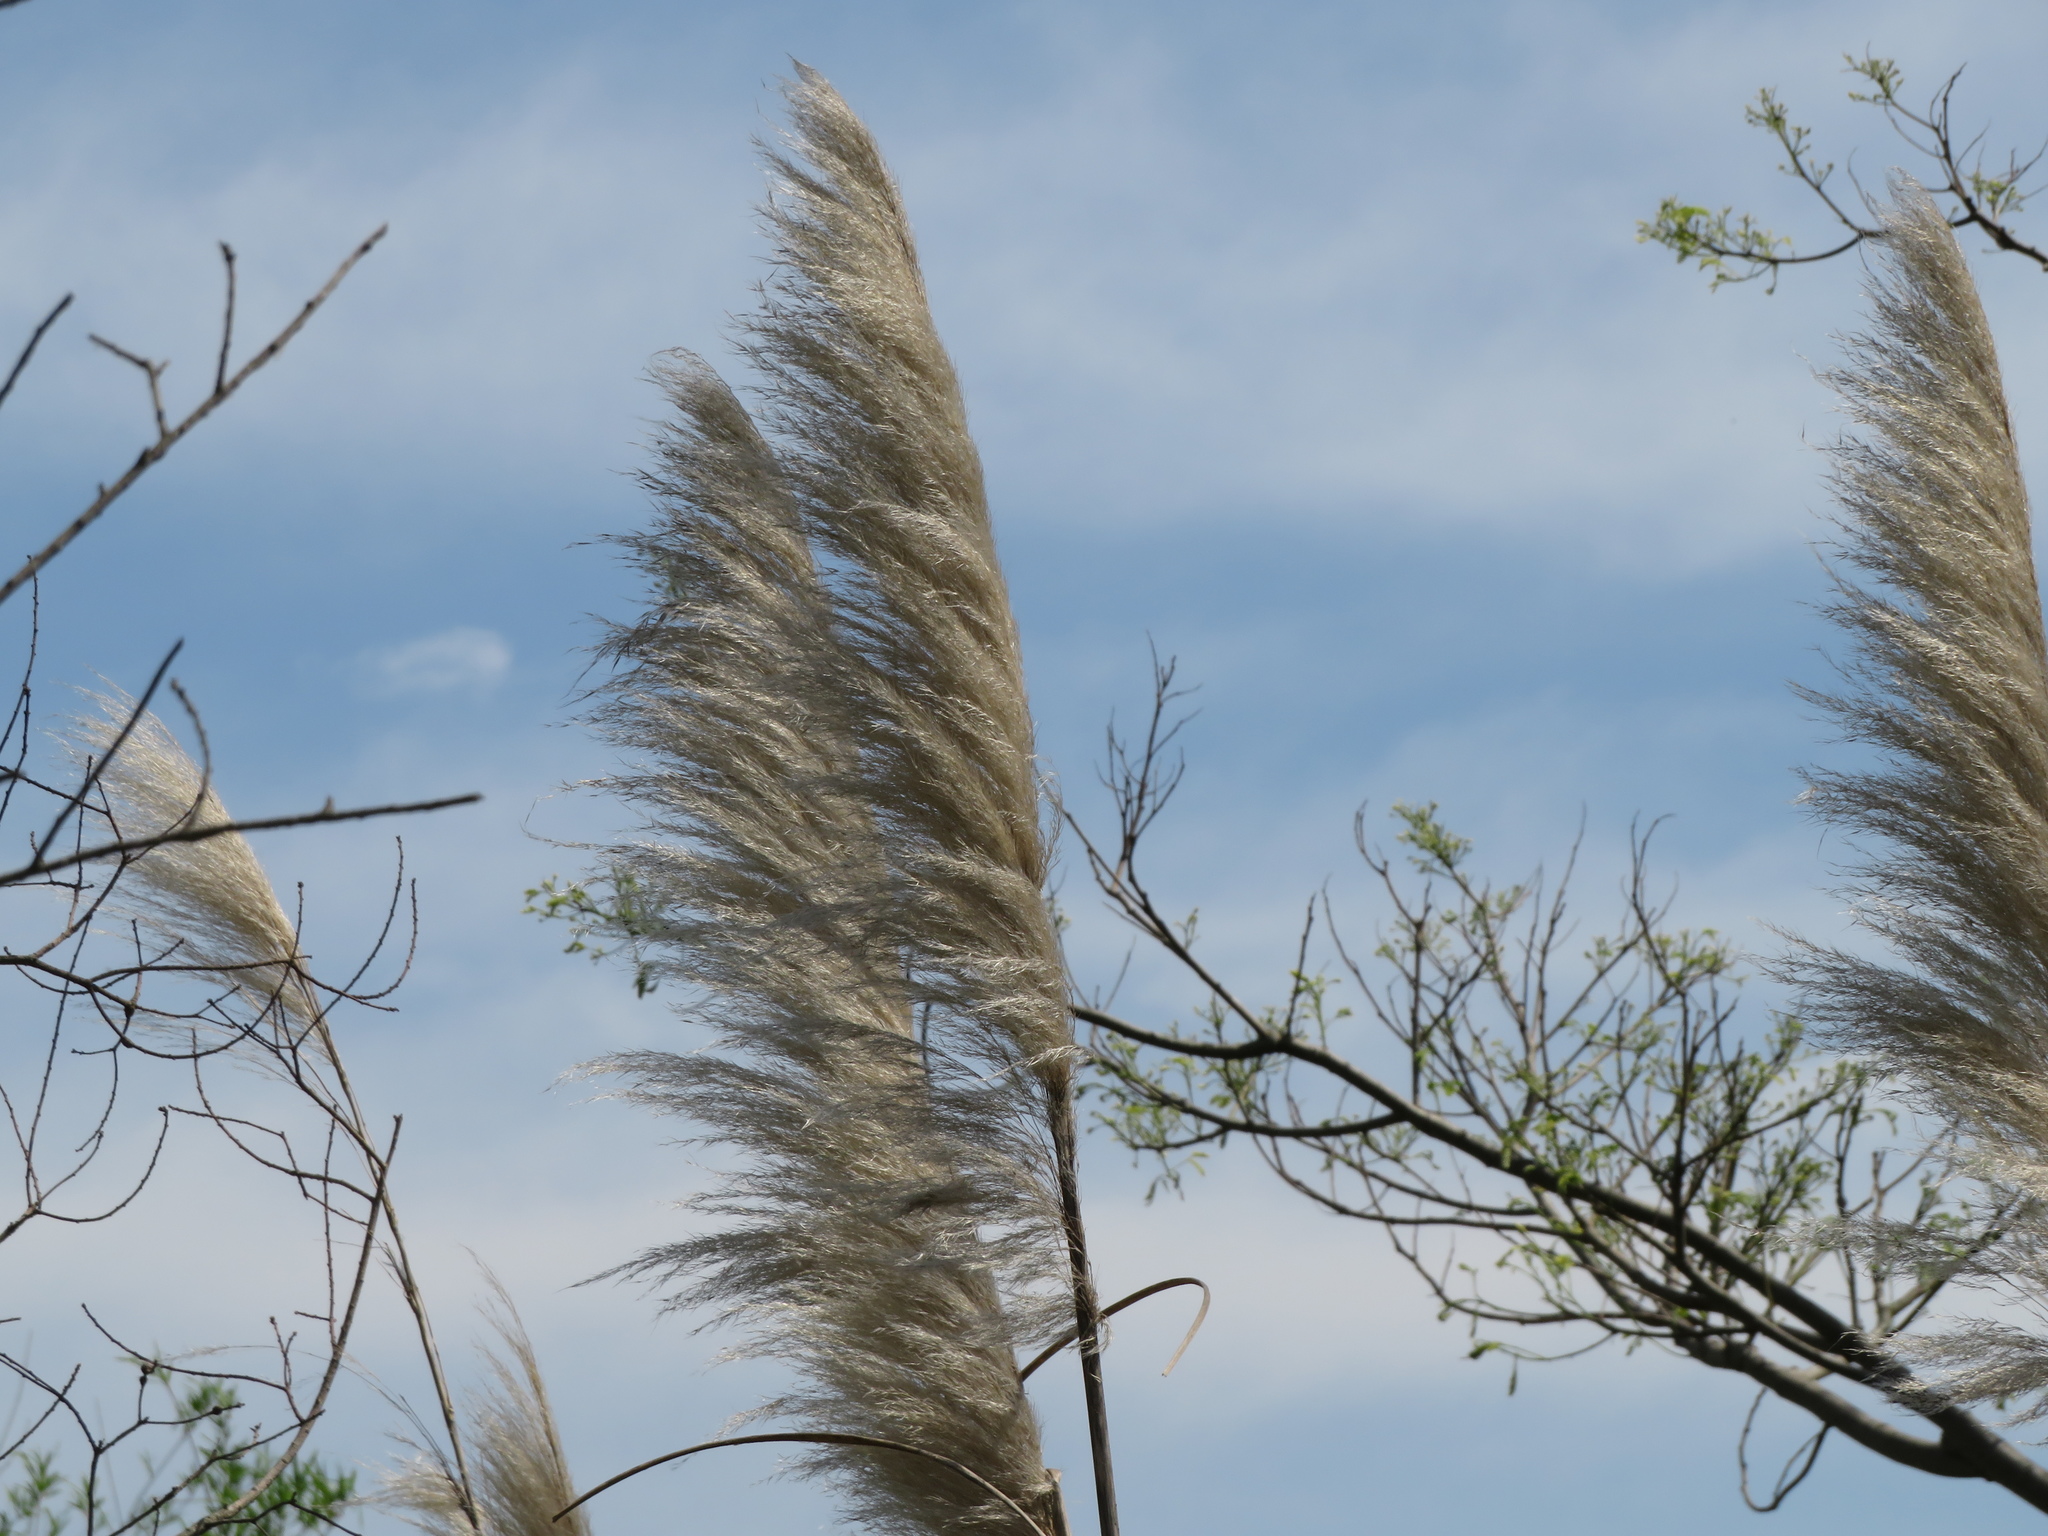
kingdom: Plantae
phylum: Tracheophyta
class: Liliopsida
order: Poales
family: Poaceae
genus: Cortaderia
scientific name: Cortaderia selloana
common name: Uruguayan pampas grass
